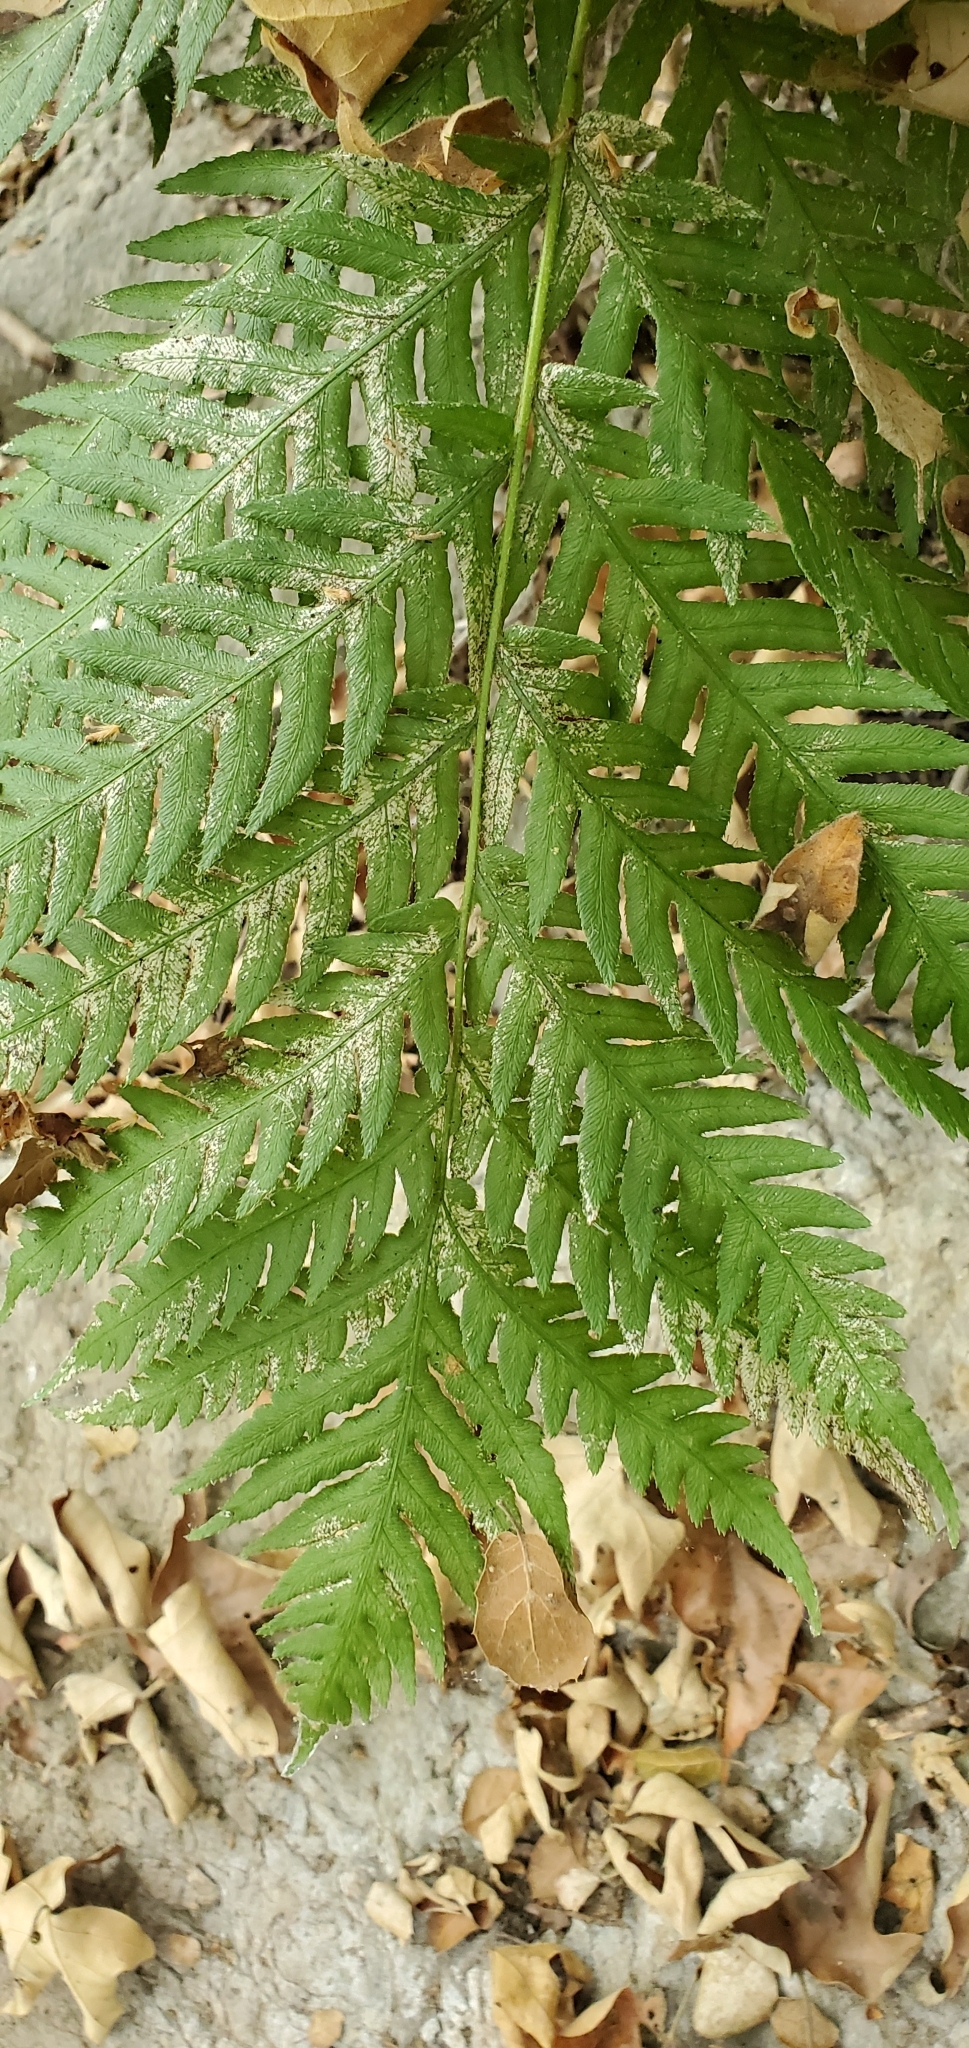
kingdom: Plantae
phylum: Tracheophyta
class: Polypodiopsida
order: Polypodiales
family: Blechnaceae
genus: Woodwardia
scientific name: Woodwardia fimbriata
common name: Giant chain fern
